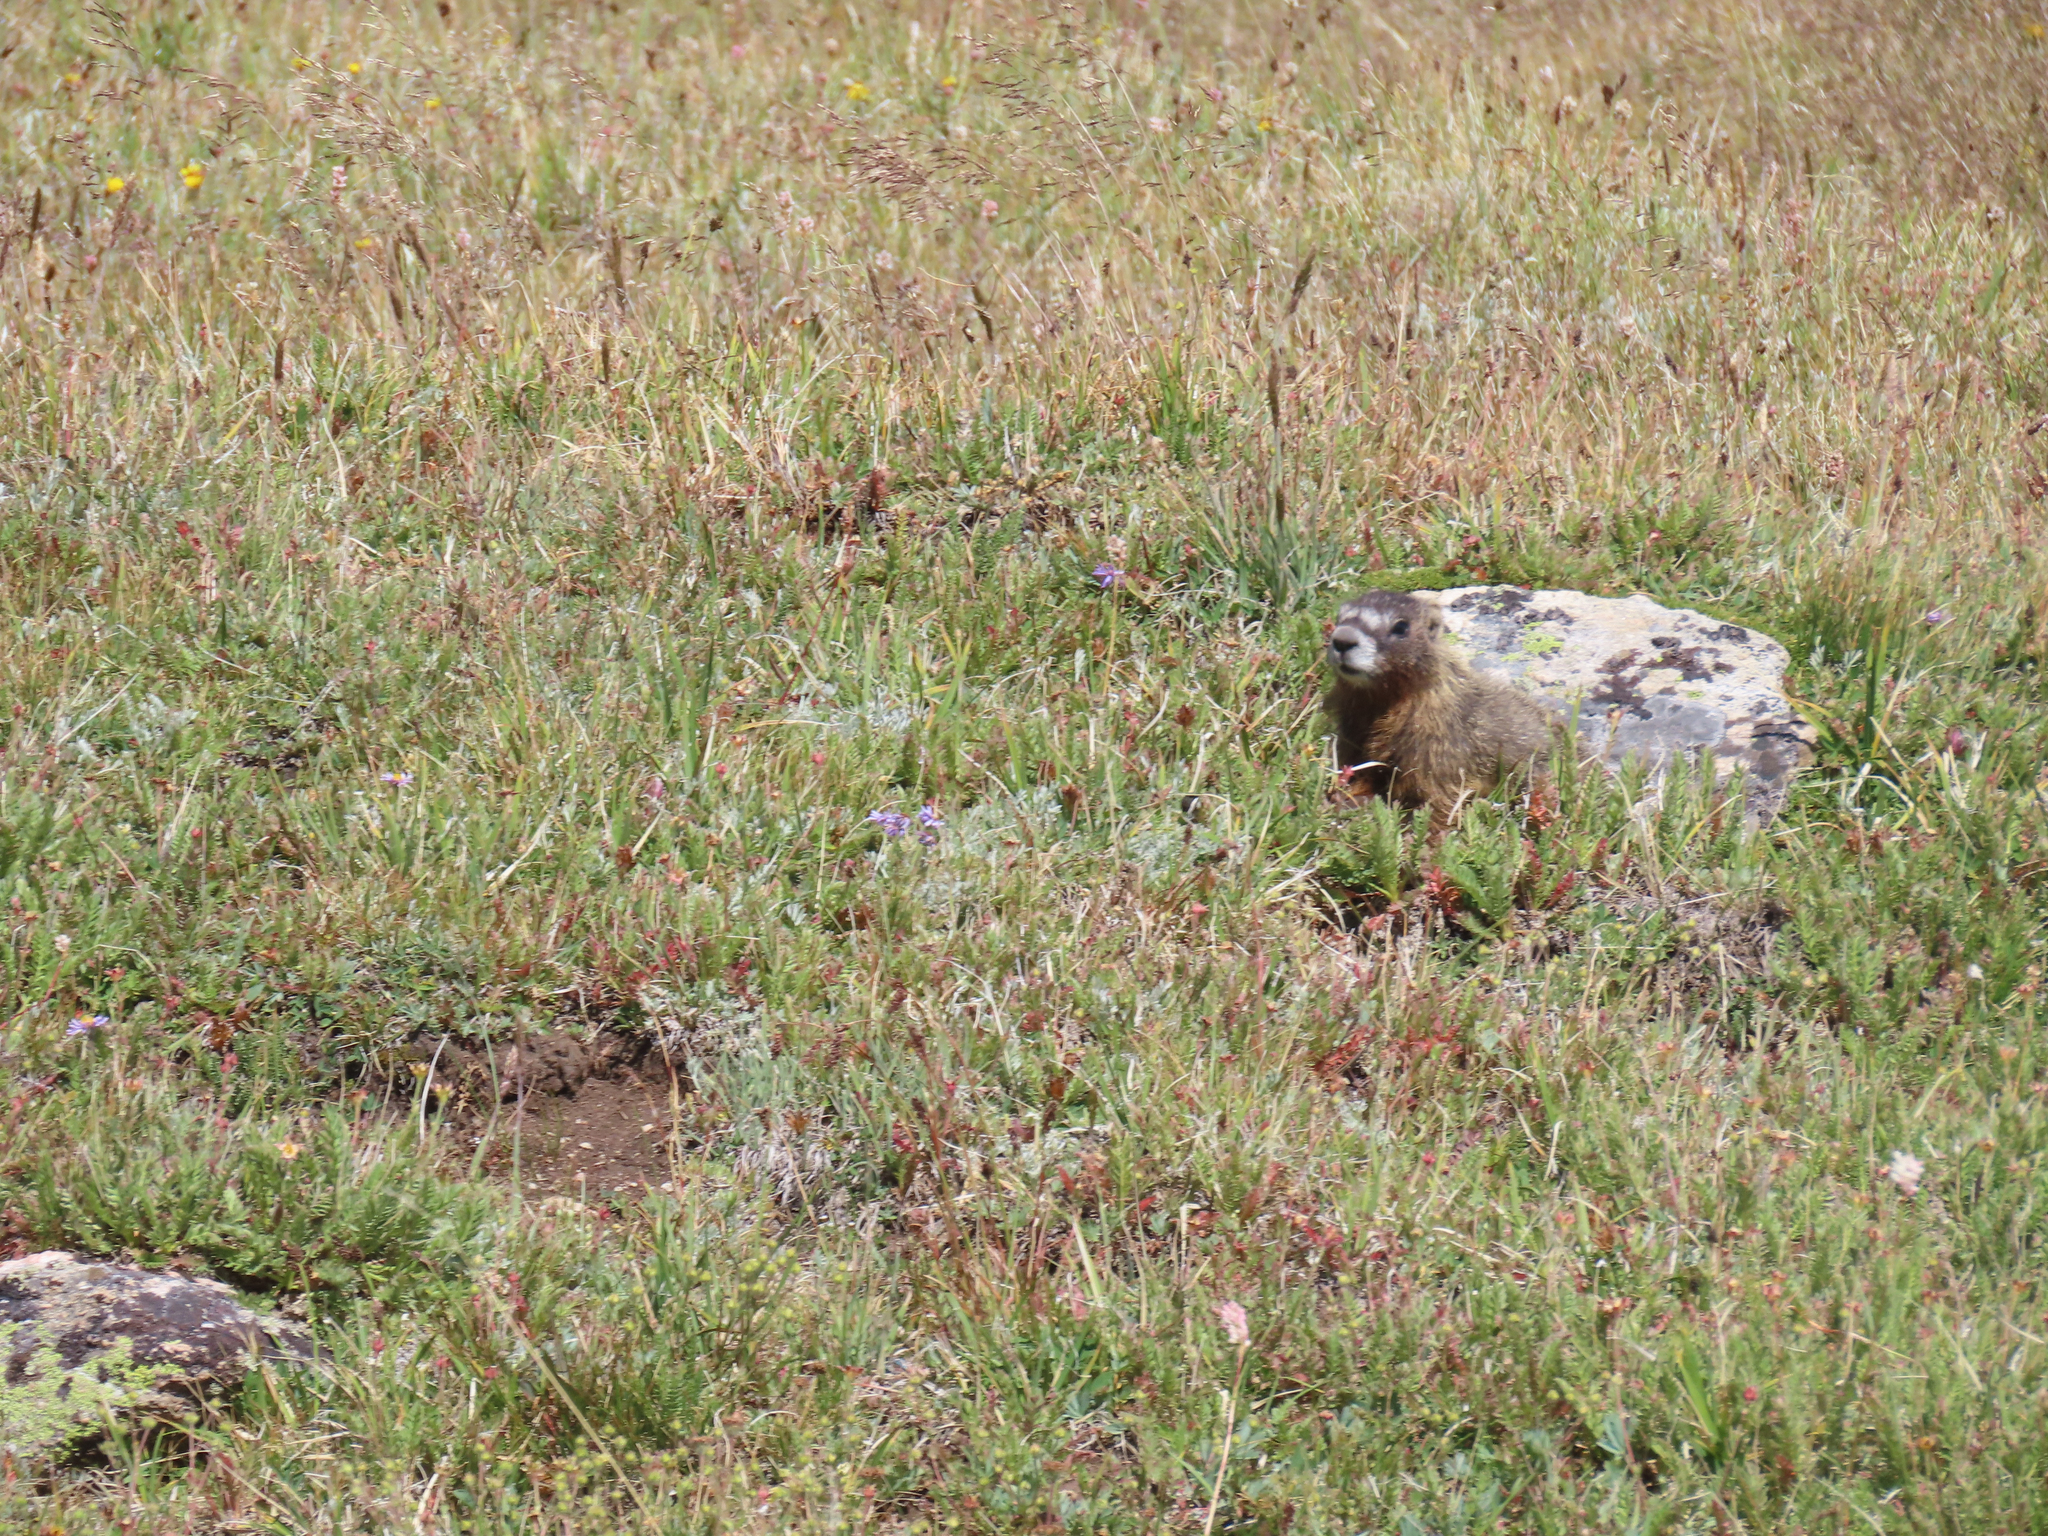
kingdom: Animalia
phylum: Chordata
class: Mammalia
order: Rodentia
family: Sciuridae
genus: Marmota
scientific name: Marmota flaviventris
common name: Yellow-bellied marmot
